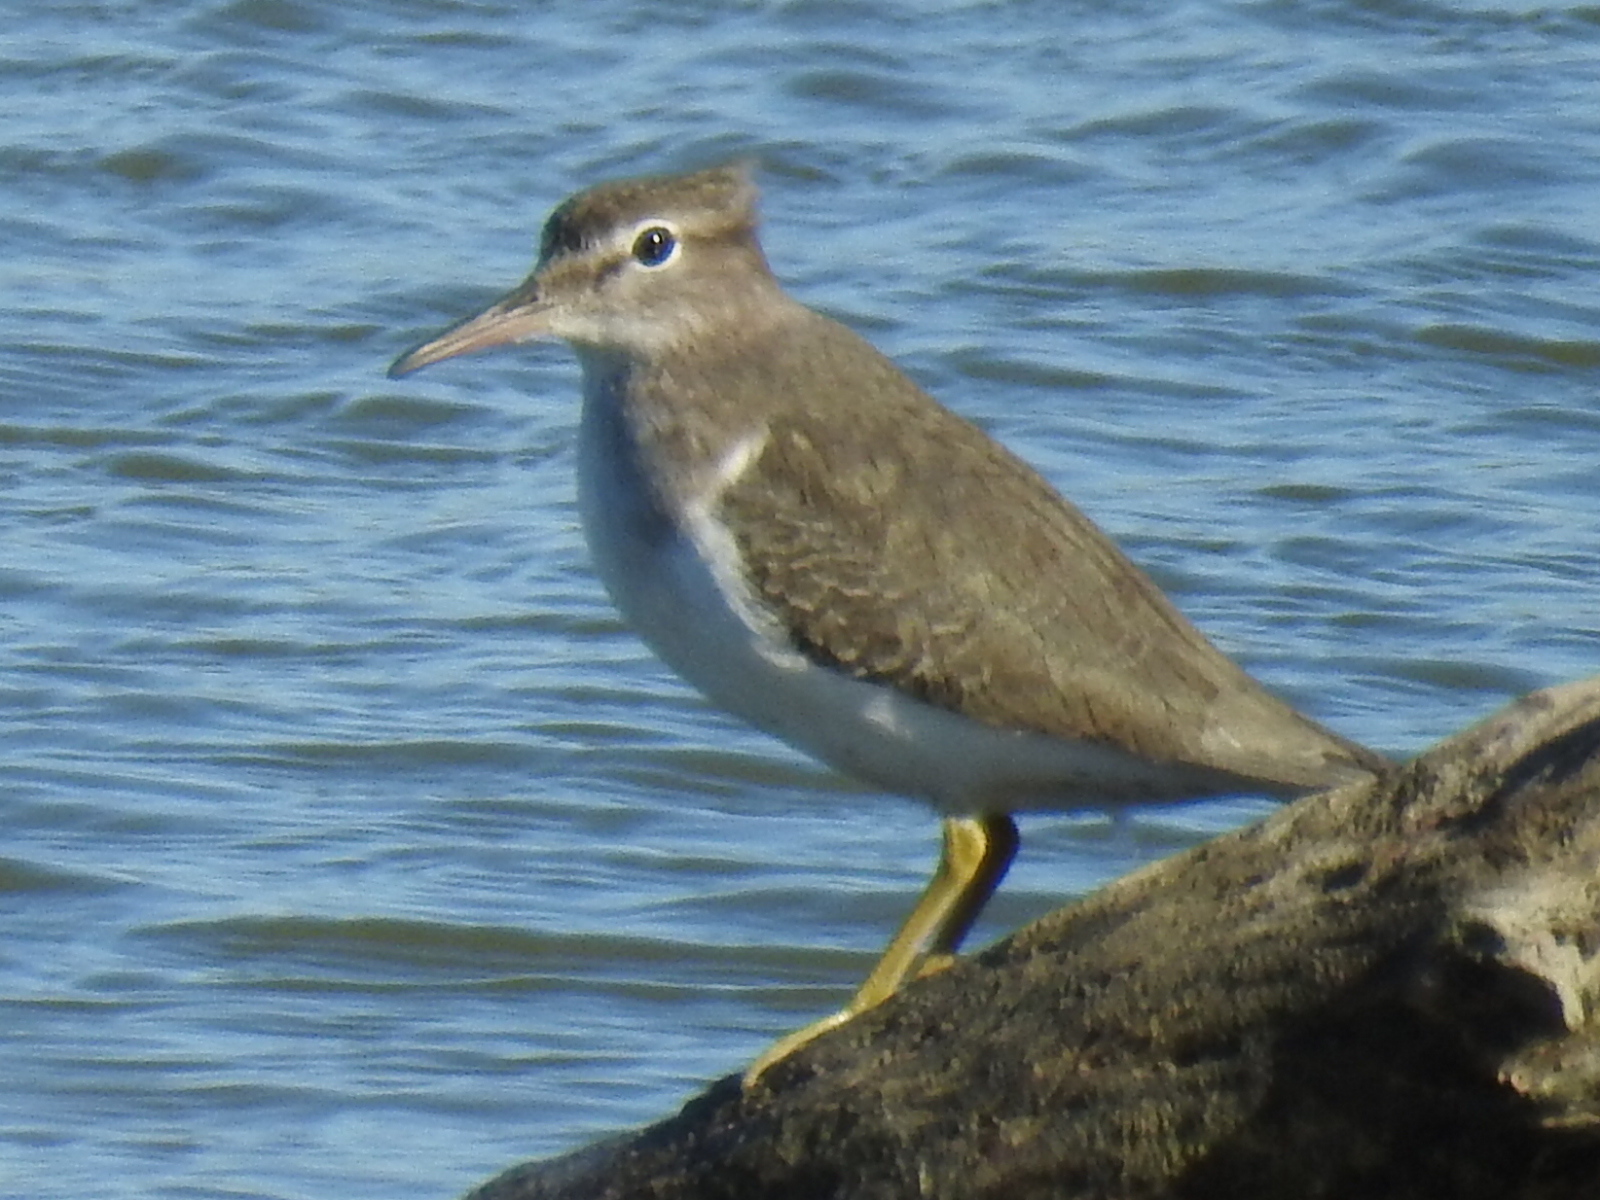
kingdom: Animalia
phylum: Chordata
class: Aves
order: Charadriiformes
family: Scolopacidae
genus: Actitis
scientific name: Actitis macularius
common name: Spotted sandpiper
